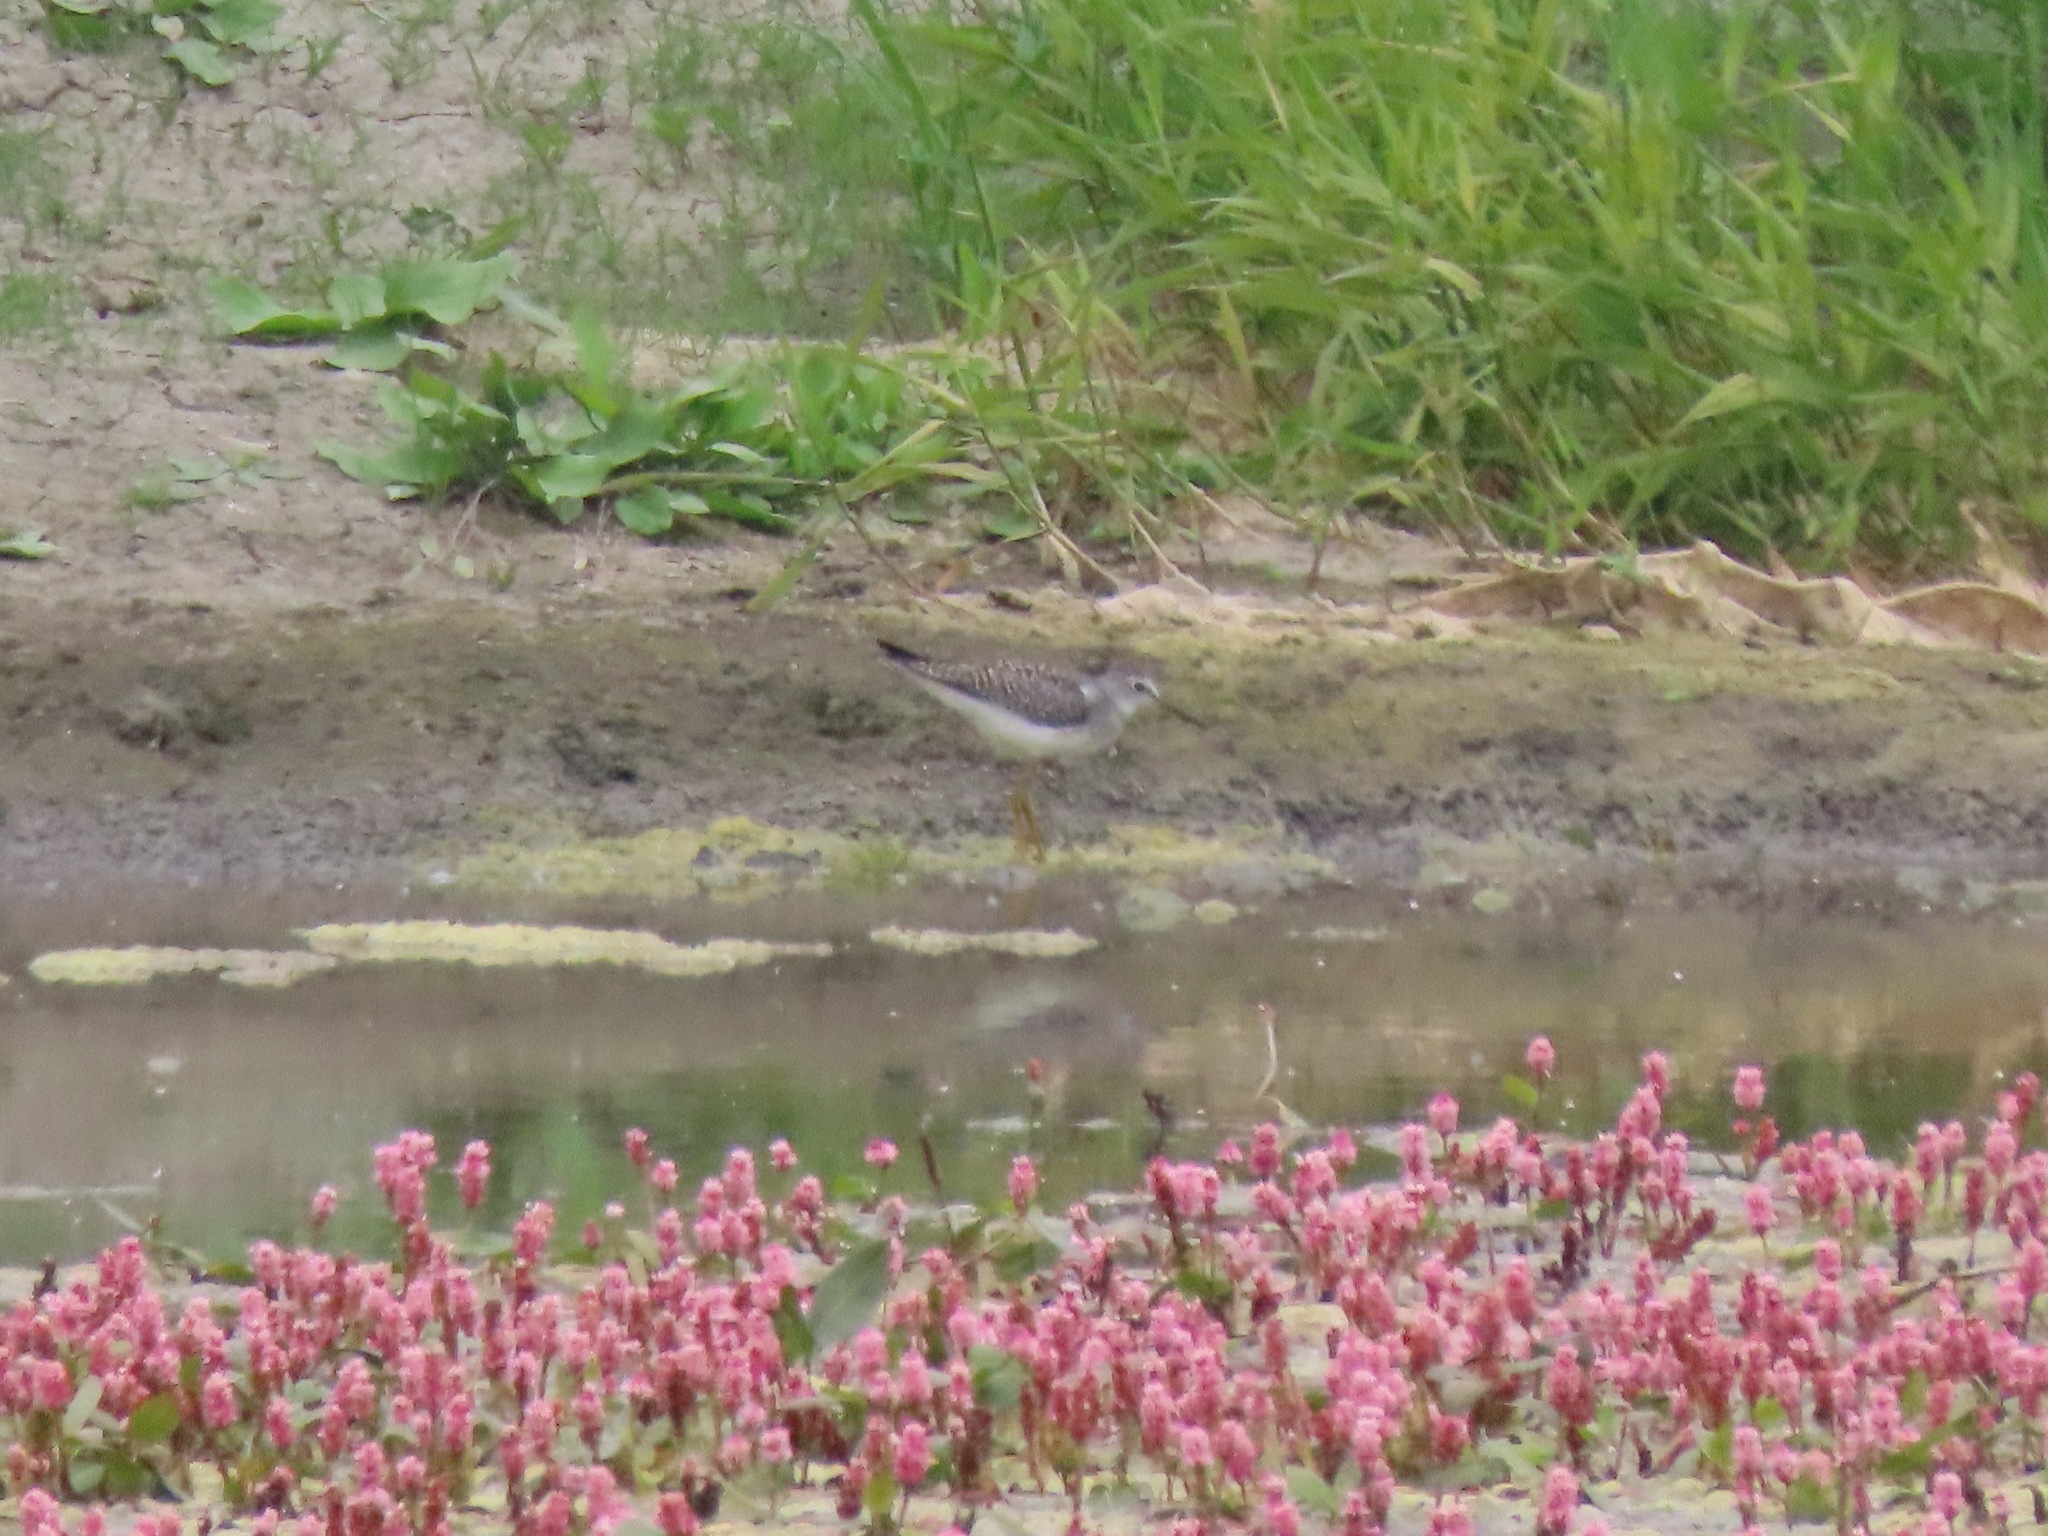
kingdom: Animalia
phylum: Chordata
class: Aves
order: Charadriiformes
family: Scolopacidae
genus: Tringa
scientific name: Tringa flavipes
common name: Lesser yellowlegs
